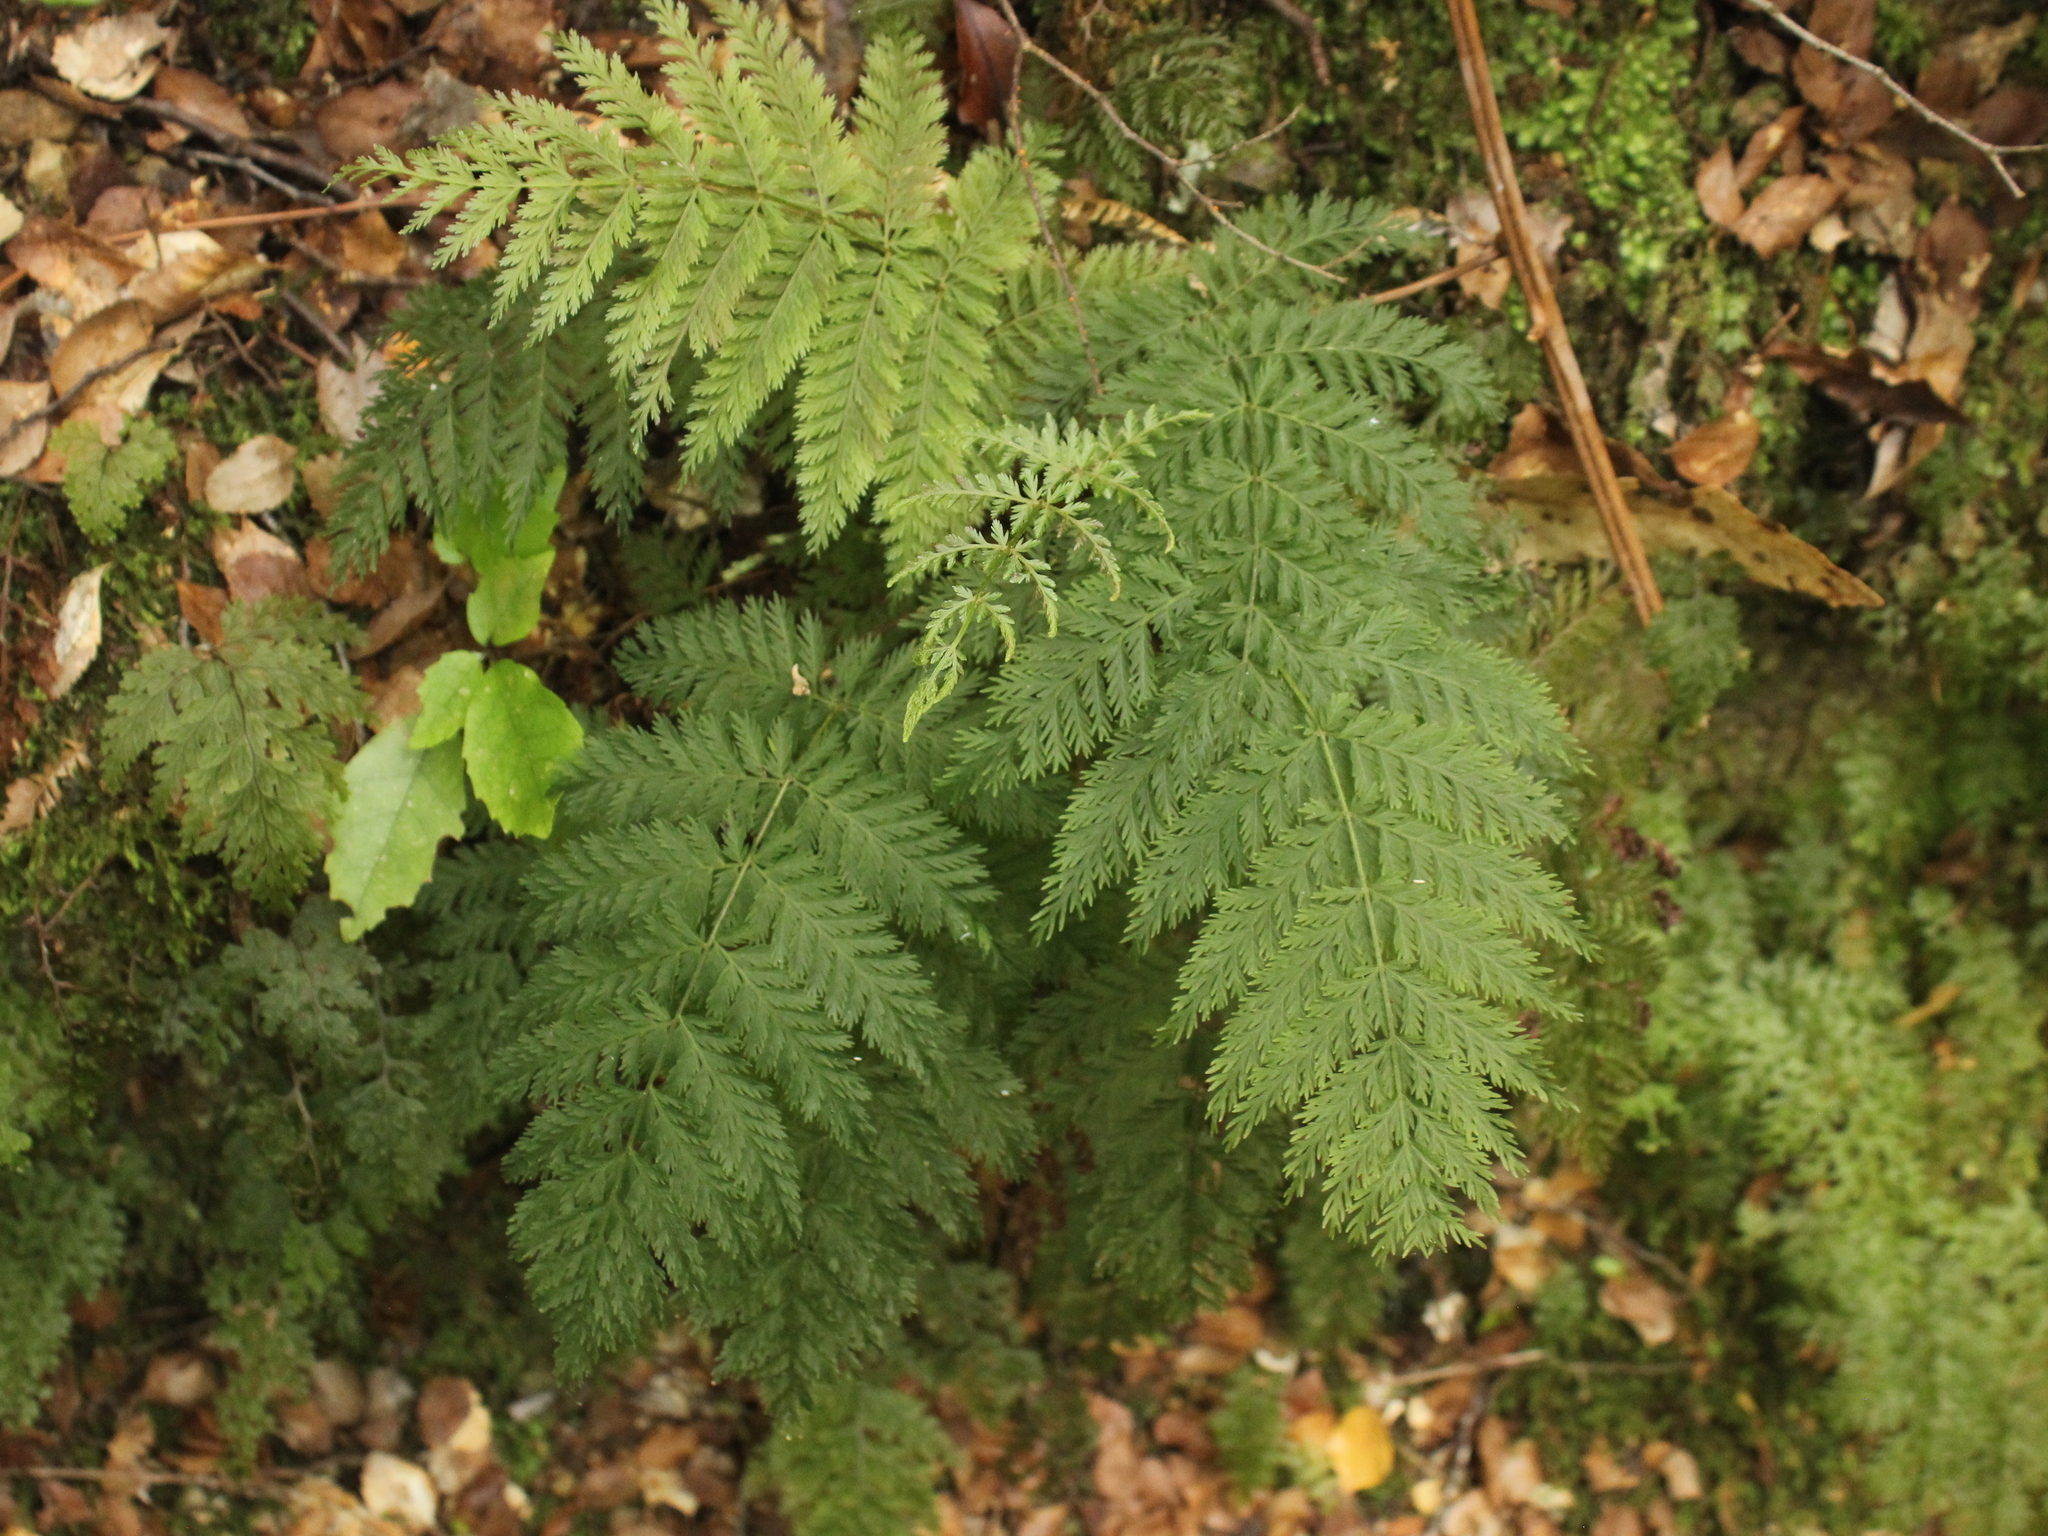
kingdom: Plantae
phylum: Tracheophyta
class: Polypodiopsida
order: Osmundales
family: Osmundaceae
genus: Leptopteris
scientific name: Leptopteris hymenophylloides
